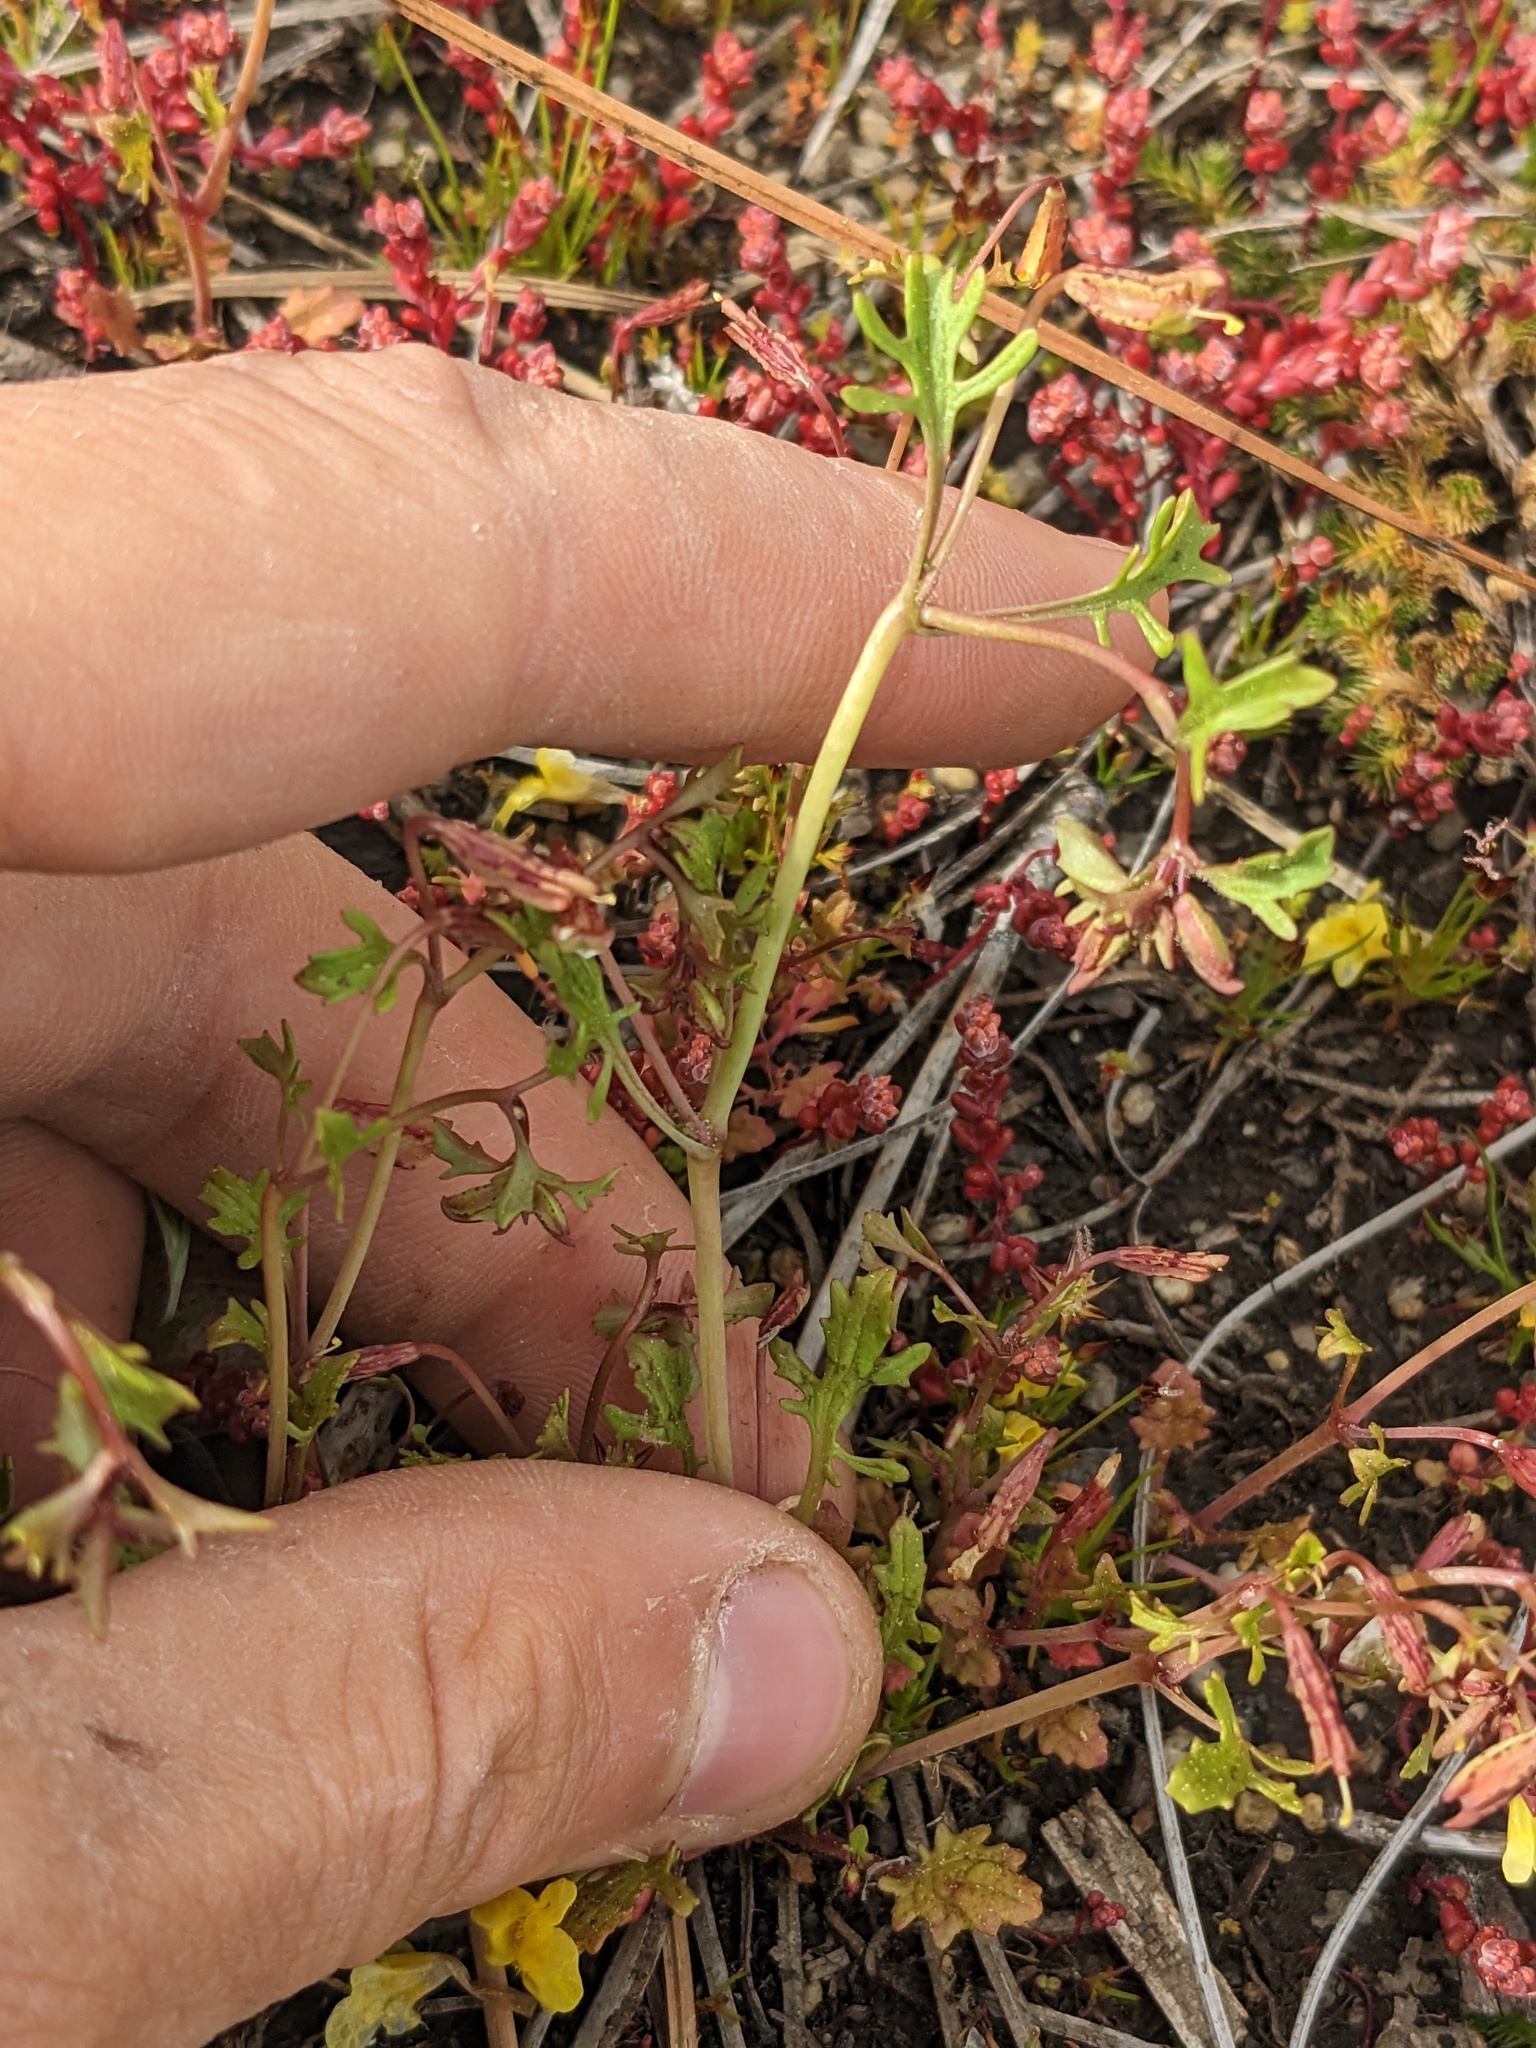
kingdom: Plantae
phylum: Tracheophyta
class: Magnoliopsida
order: Lamiales
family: Phrymaceae
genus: Erythranthe
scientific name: Erythranthe laciniata
